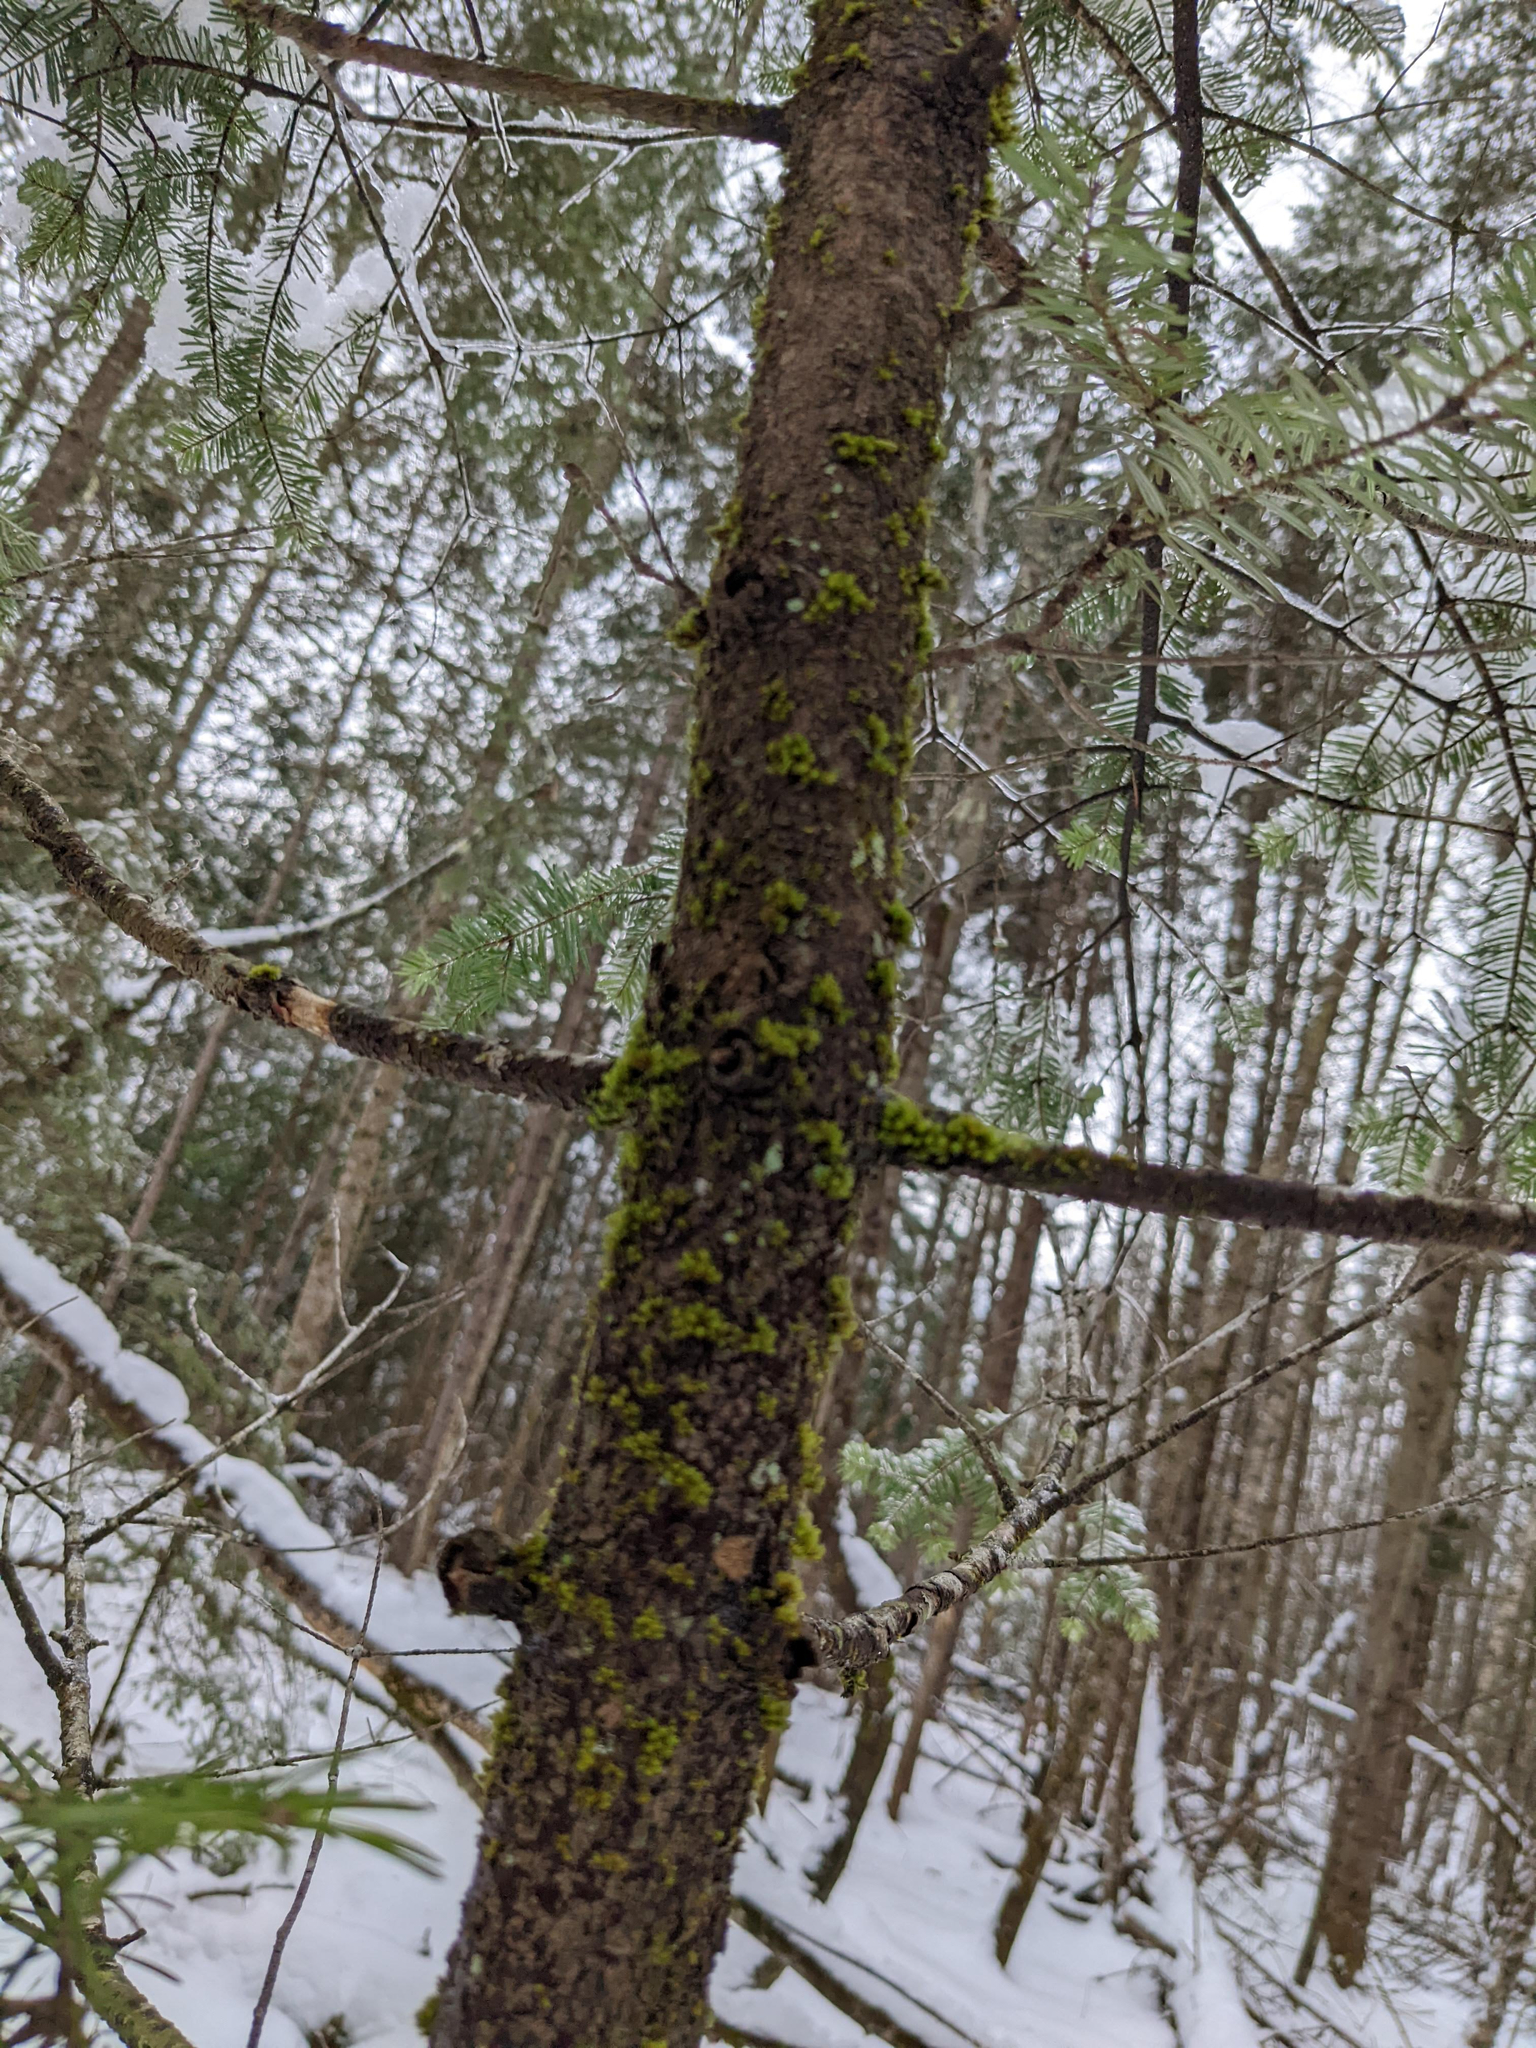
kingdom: Plantae
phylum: Bryophyta
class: Bryopsida
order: Orthotrichales
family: Orthotrichaceae
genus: Ulota
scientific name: Ulota crispa
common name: Crisped pincushion moss
